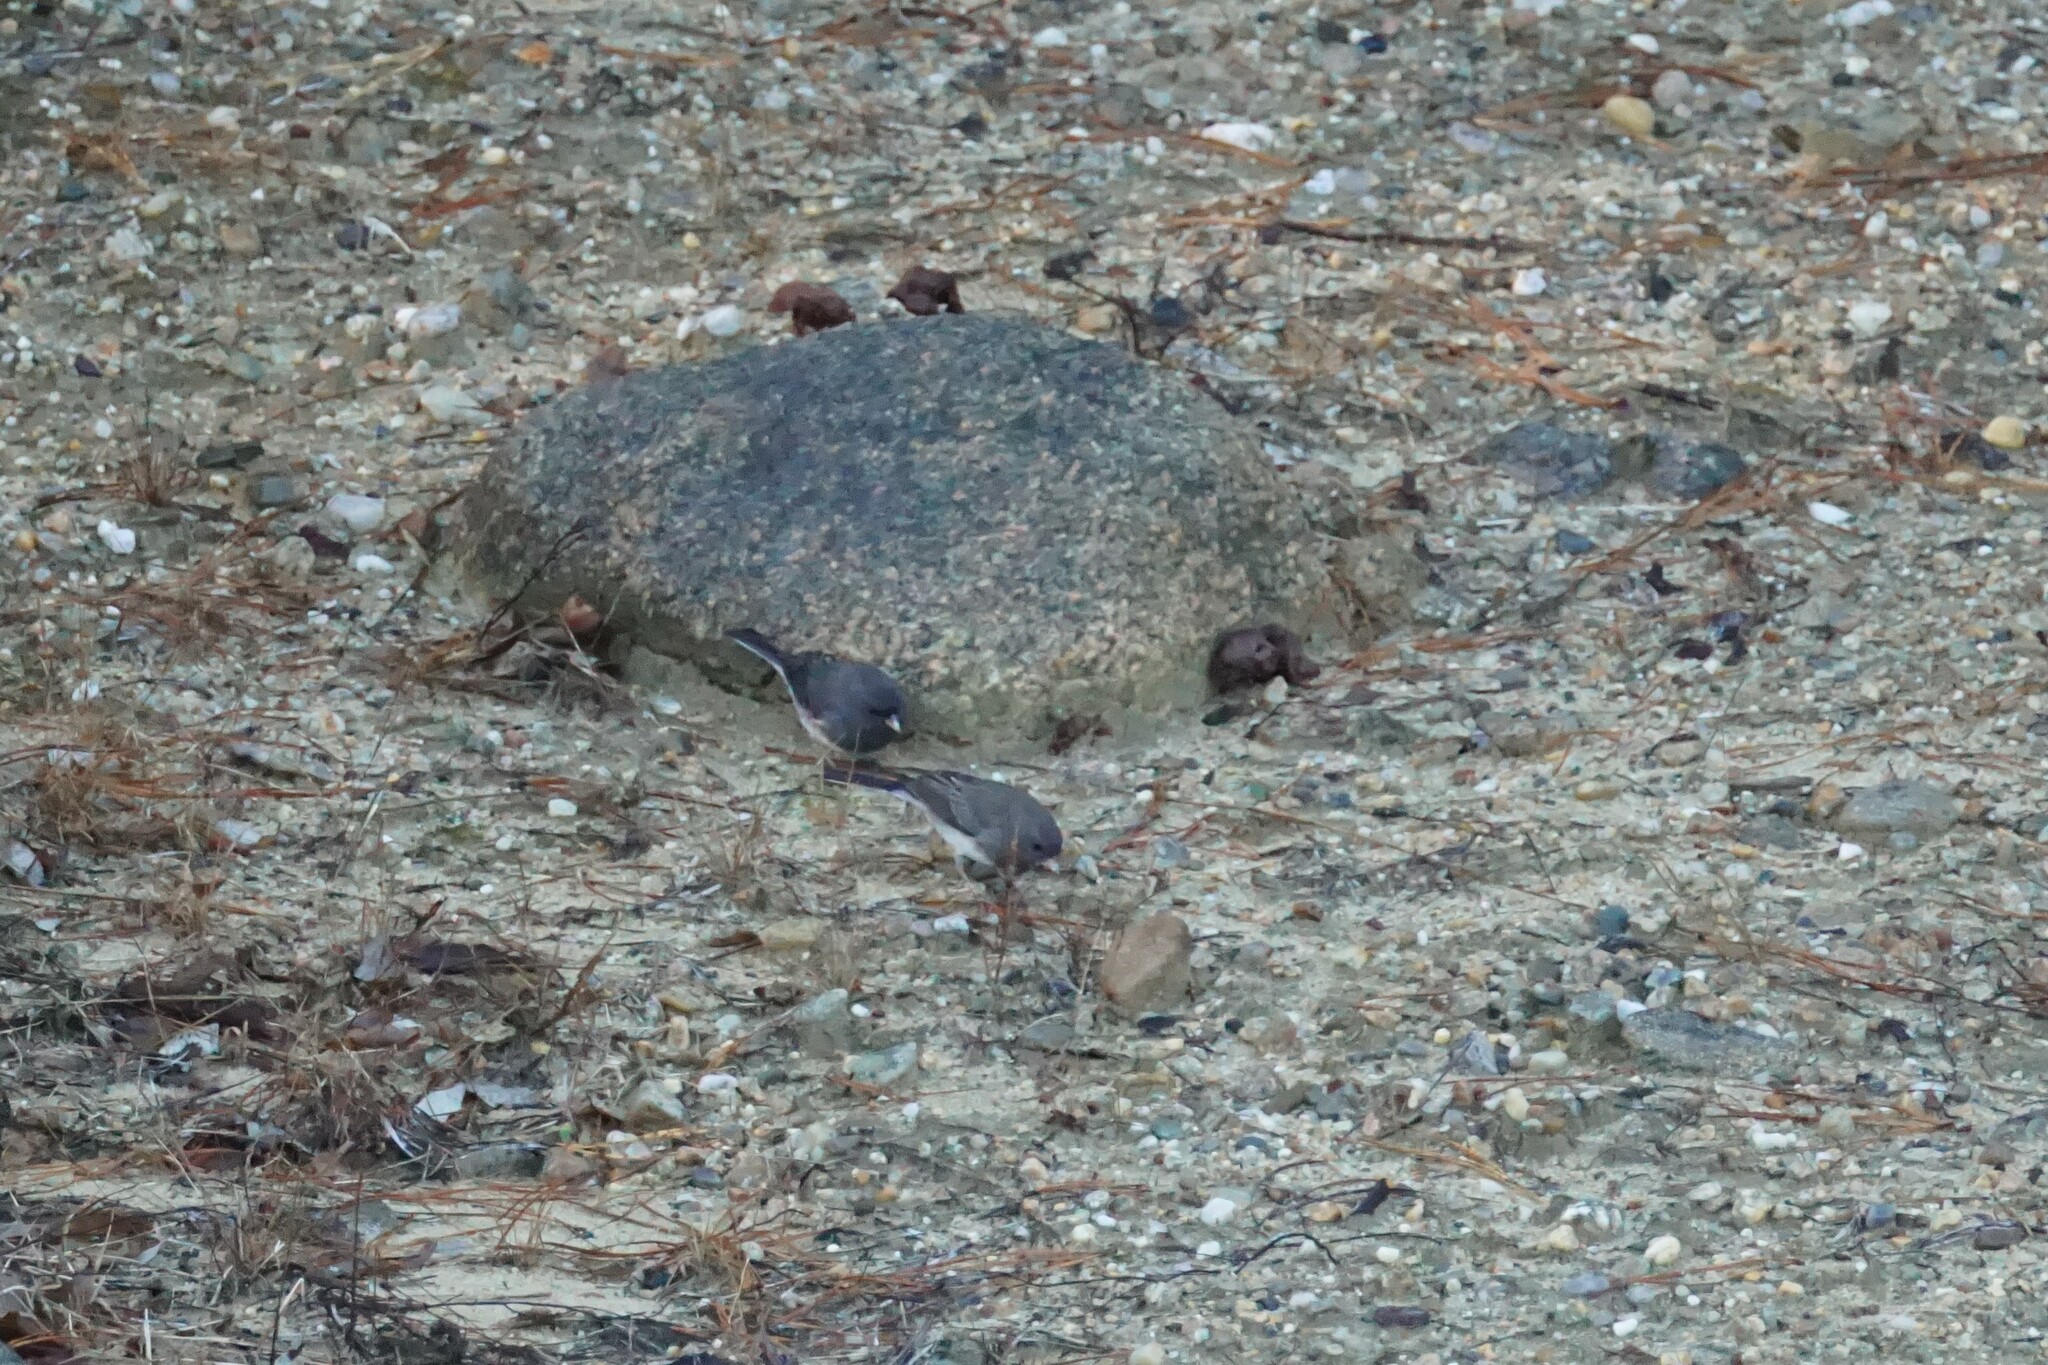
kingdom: Animalia
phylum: Chordata
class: Aves
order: Passeriformes
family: Passerellidae
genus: Junco
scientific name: Junco hyemalis
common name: Dark-eyed junco
